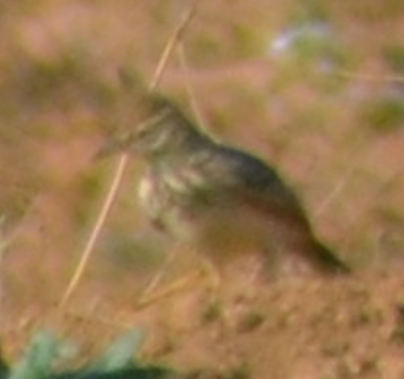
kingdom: Animalia
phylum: Chordata
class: Aves
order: Passeriformes
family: Alaudidae
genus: Galerida
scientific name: Galerida cristata
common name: Crested lark
